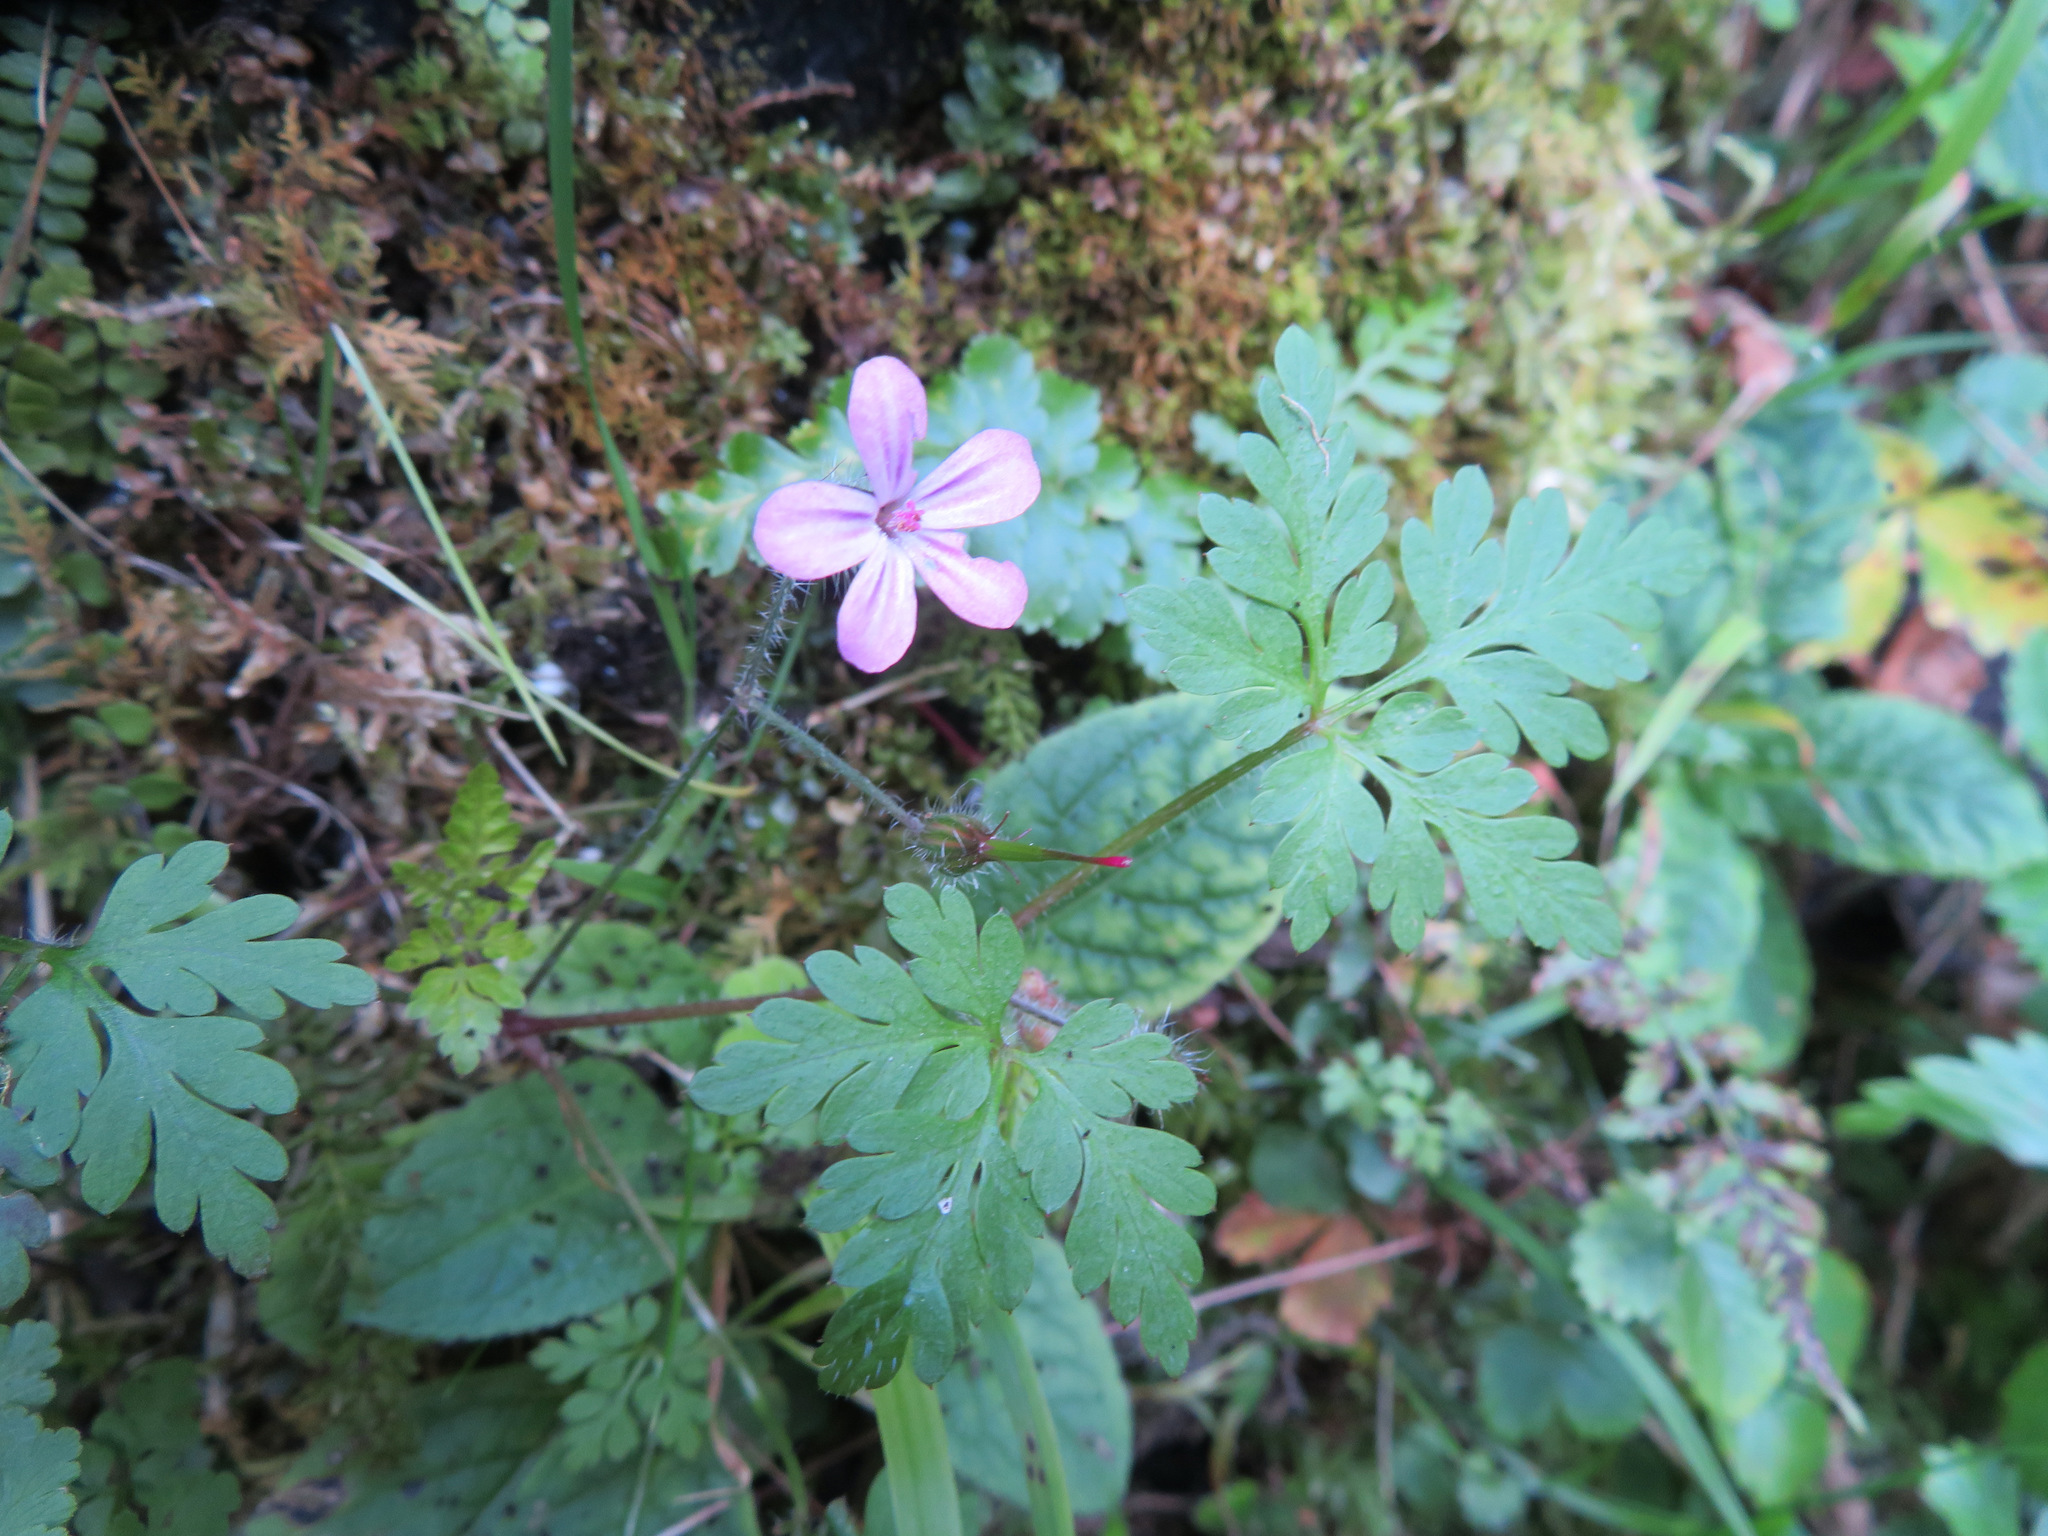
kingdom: Plantae
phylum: Tracheophyta
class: Magnoliopsida
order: Geraniales
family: Geraniaceae
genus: Geranium
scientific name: Geranium robertianum
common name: Herb-robert
